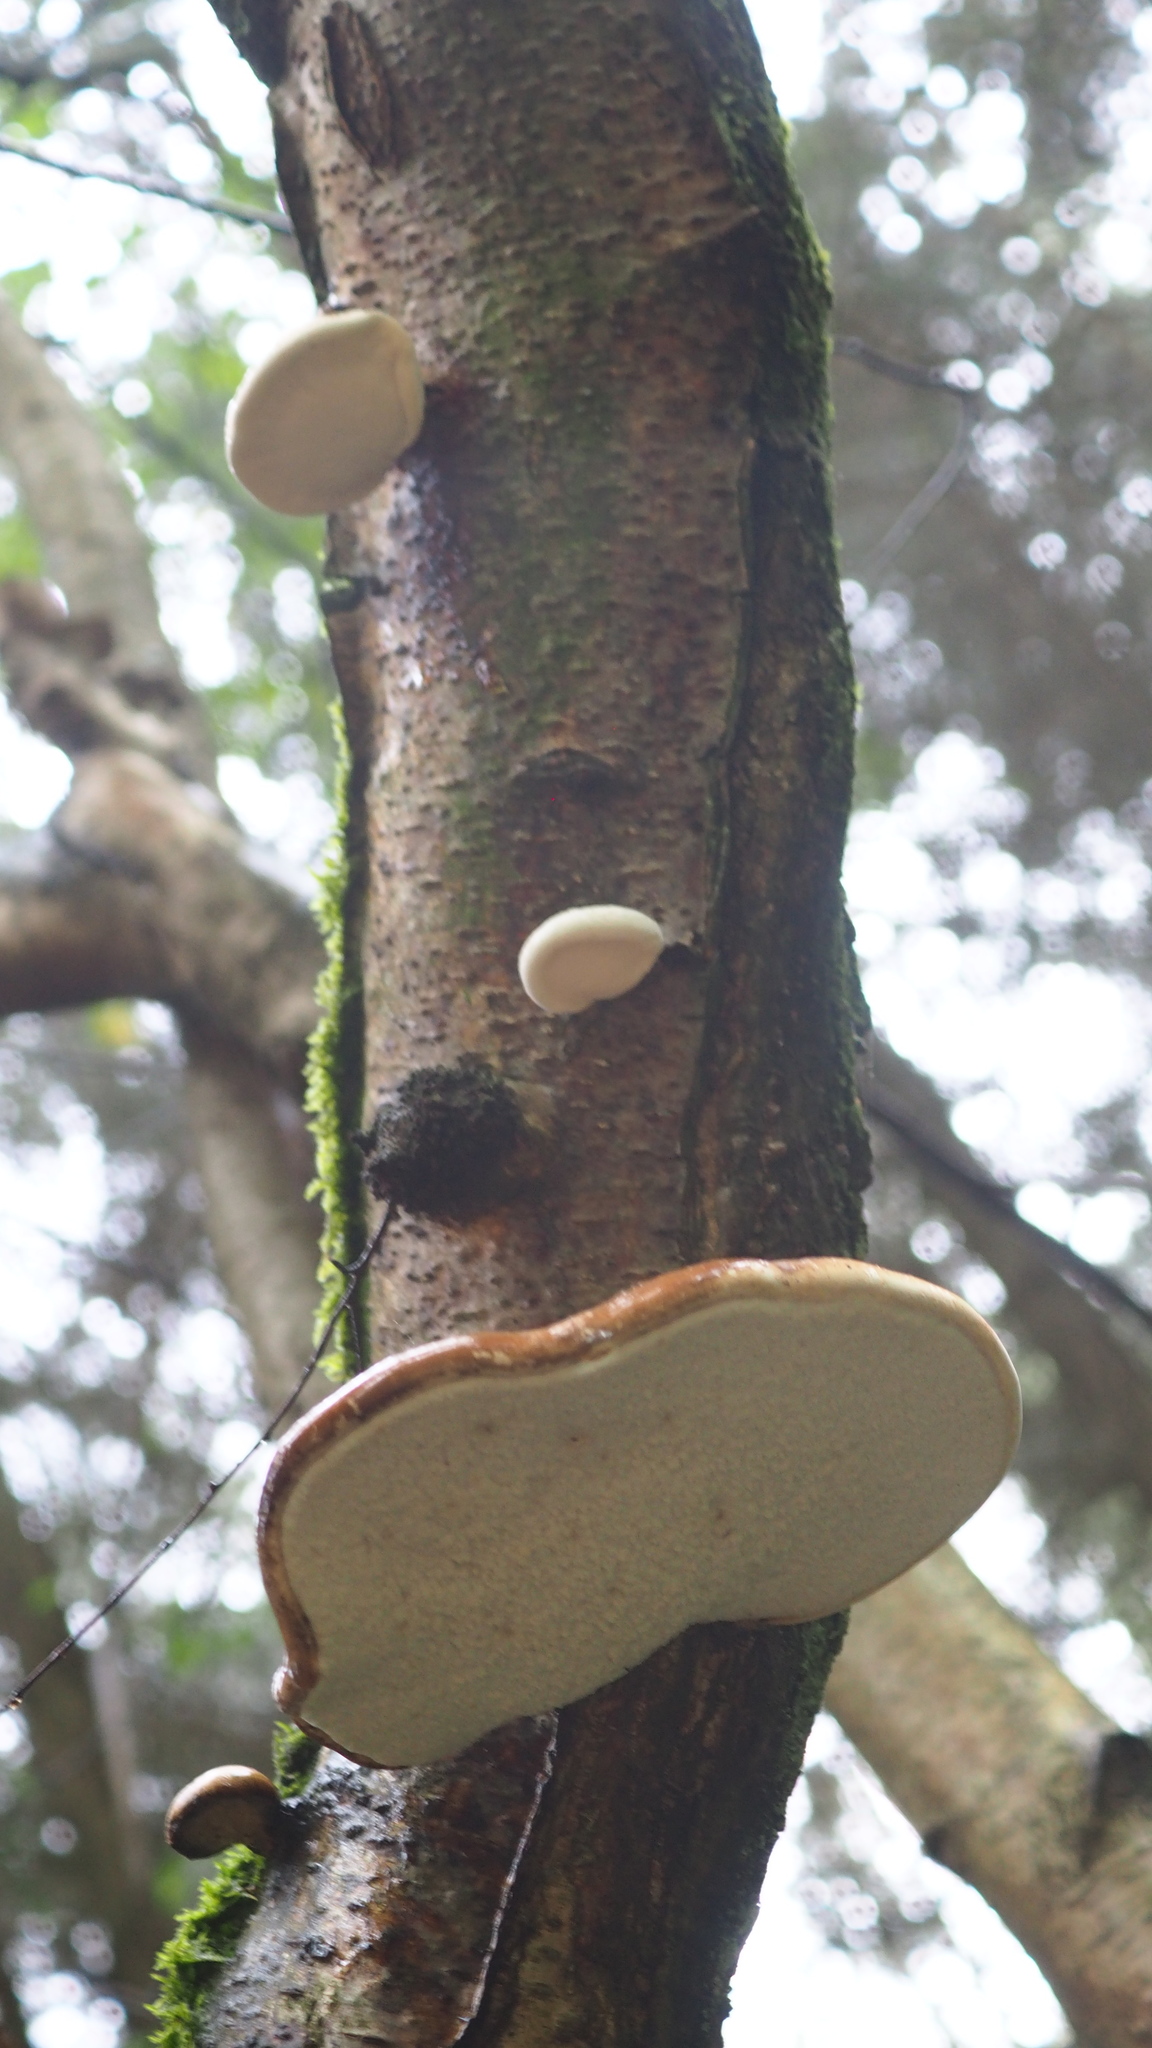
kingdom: Fungi
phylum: Basidiomycota
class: Agaricomycetes
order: Polyporales
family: Fomitopsidaceae
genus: Fomitopsis
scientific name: Fomitopsis betulina
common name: Birch polypore
